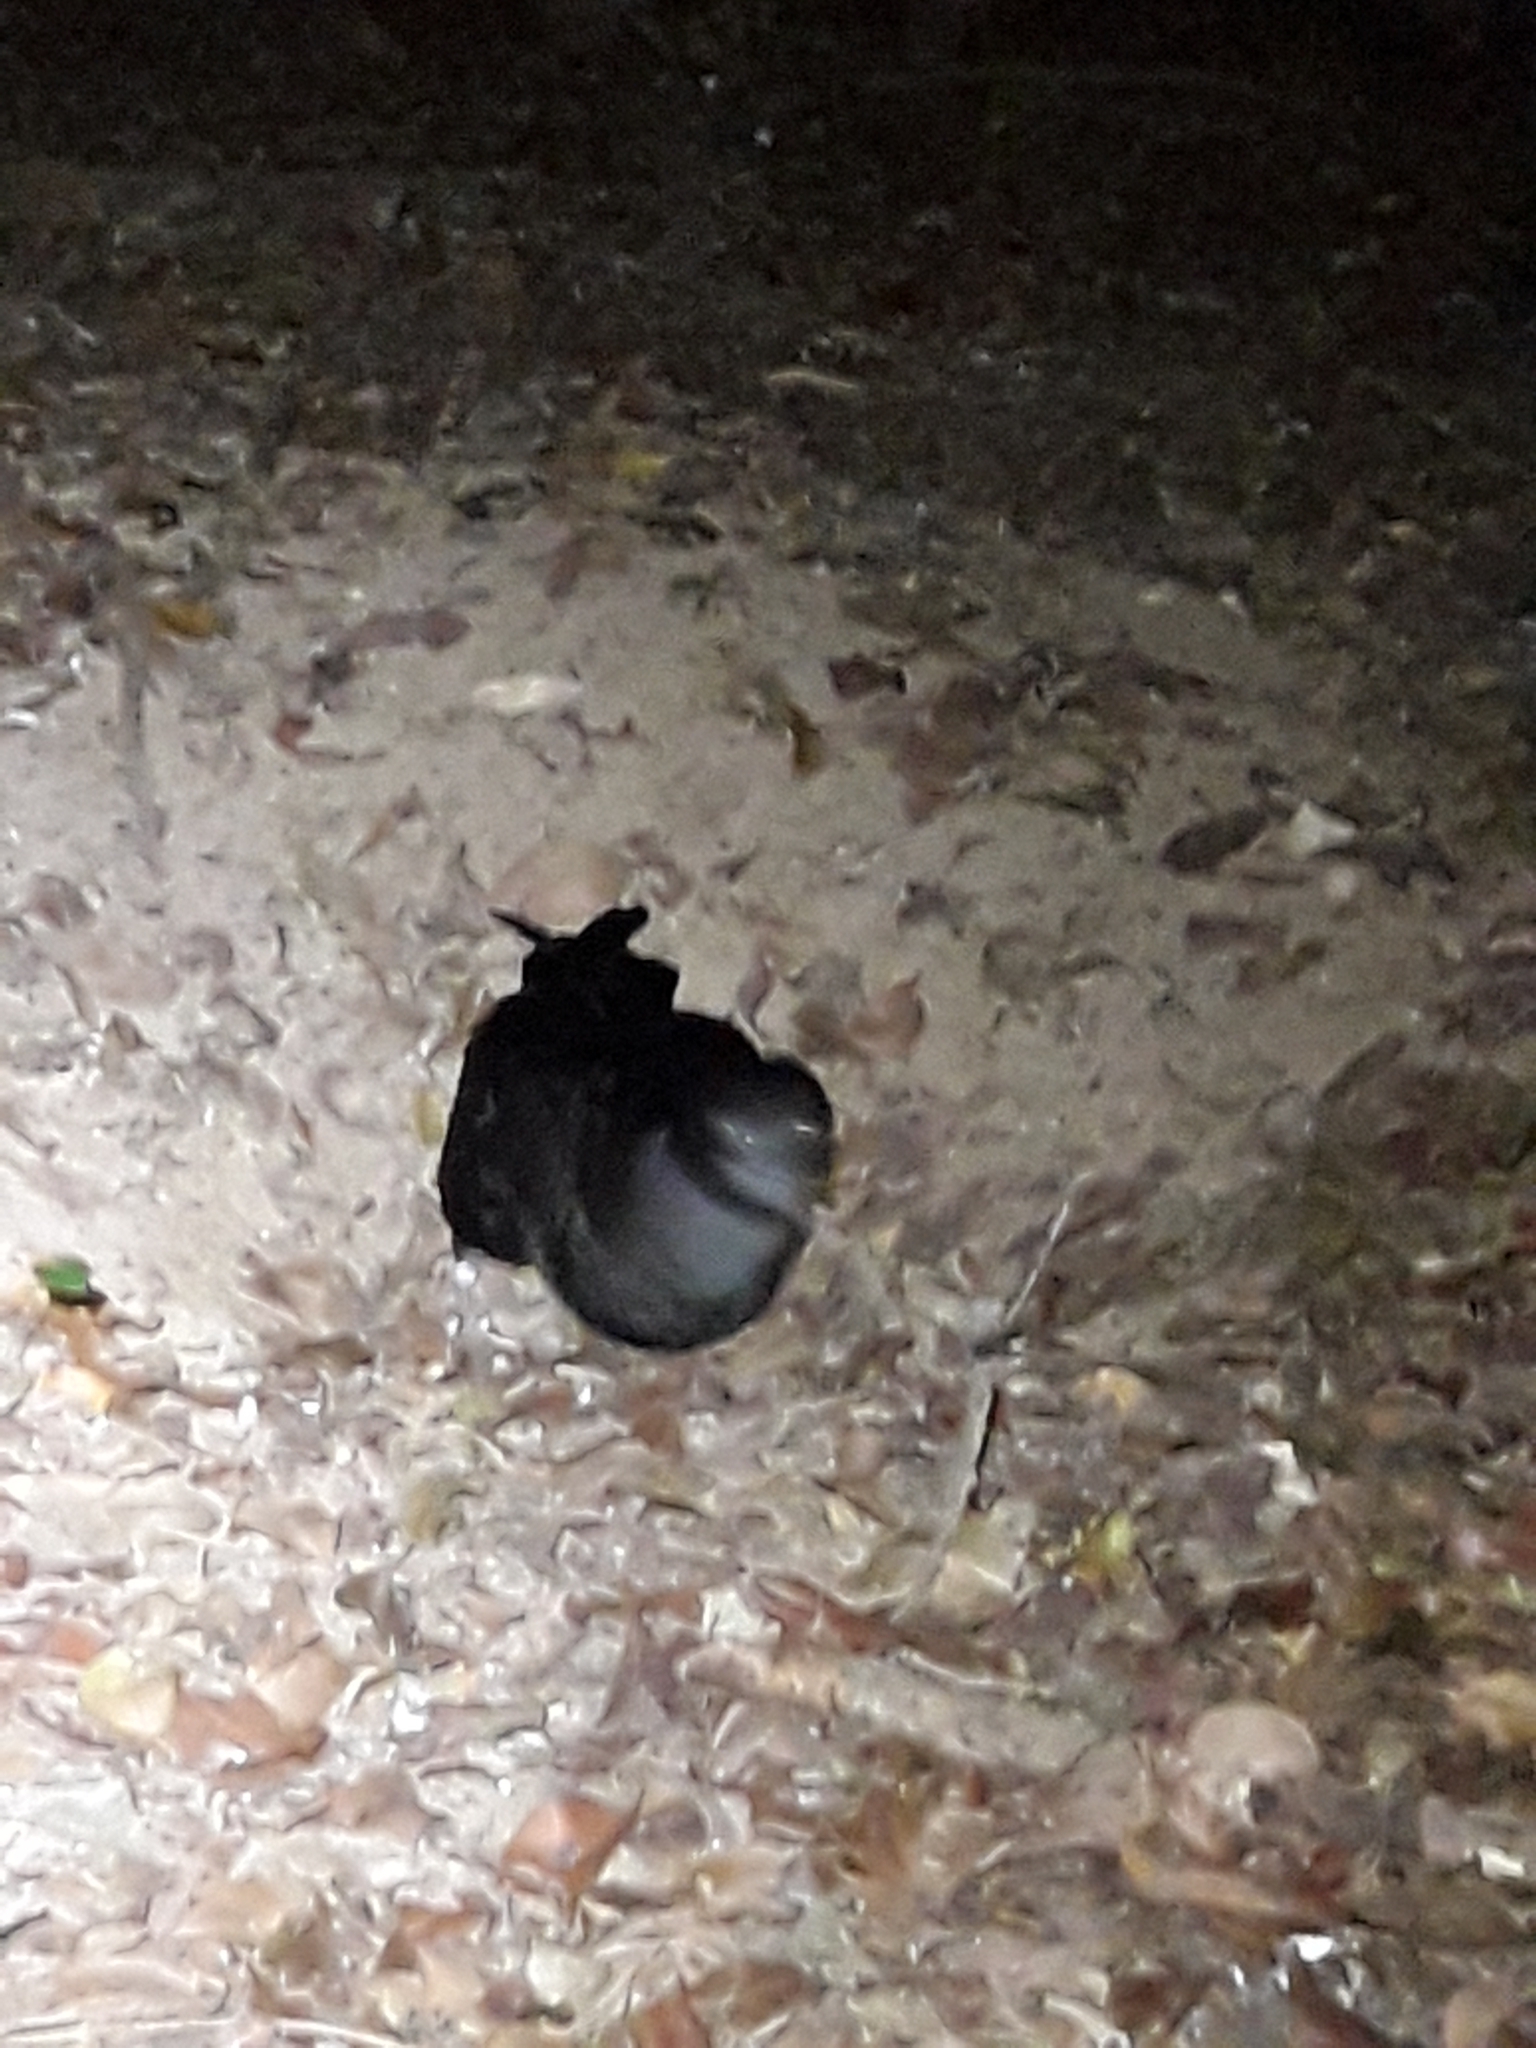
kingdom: Animalia
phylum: Chordata
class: Aves
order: Procellariiformes
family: Procellariidae
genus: Puffinus
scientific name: Puffinus carneipes
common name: Flesh-footed shearwater
